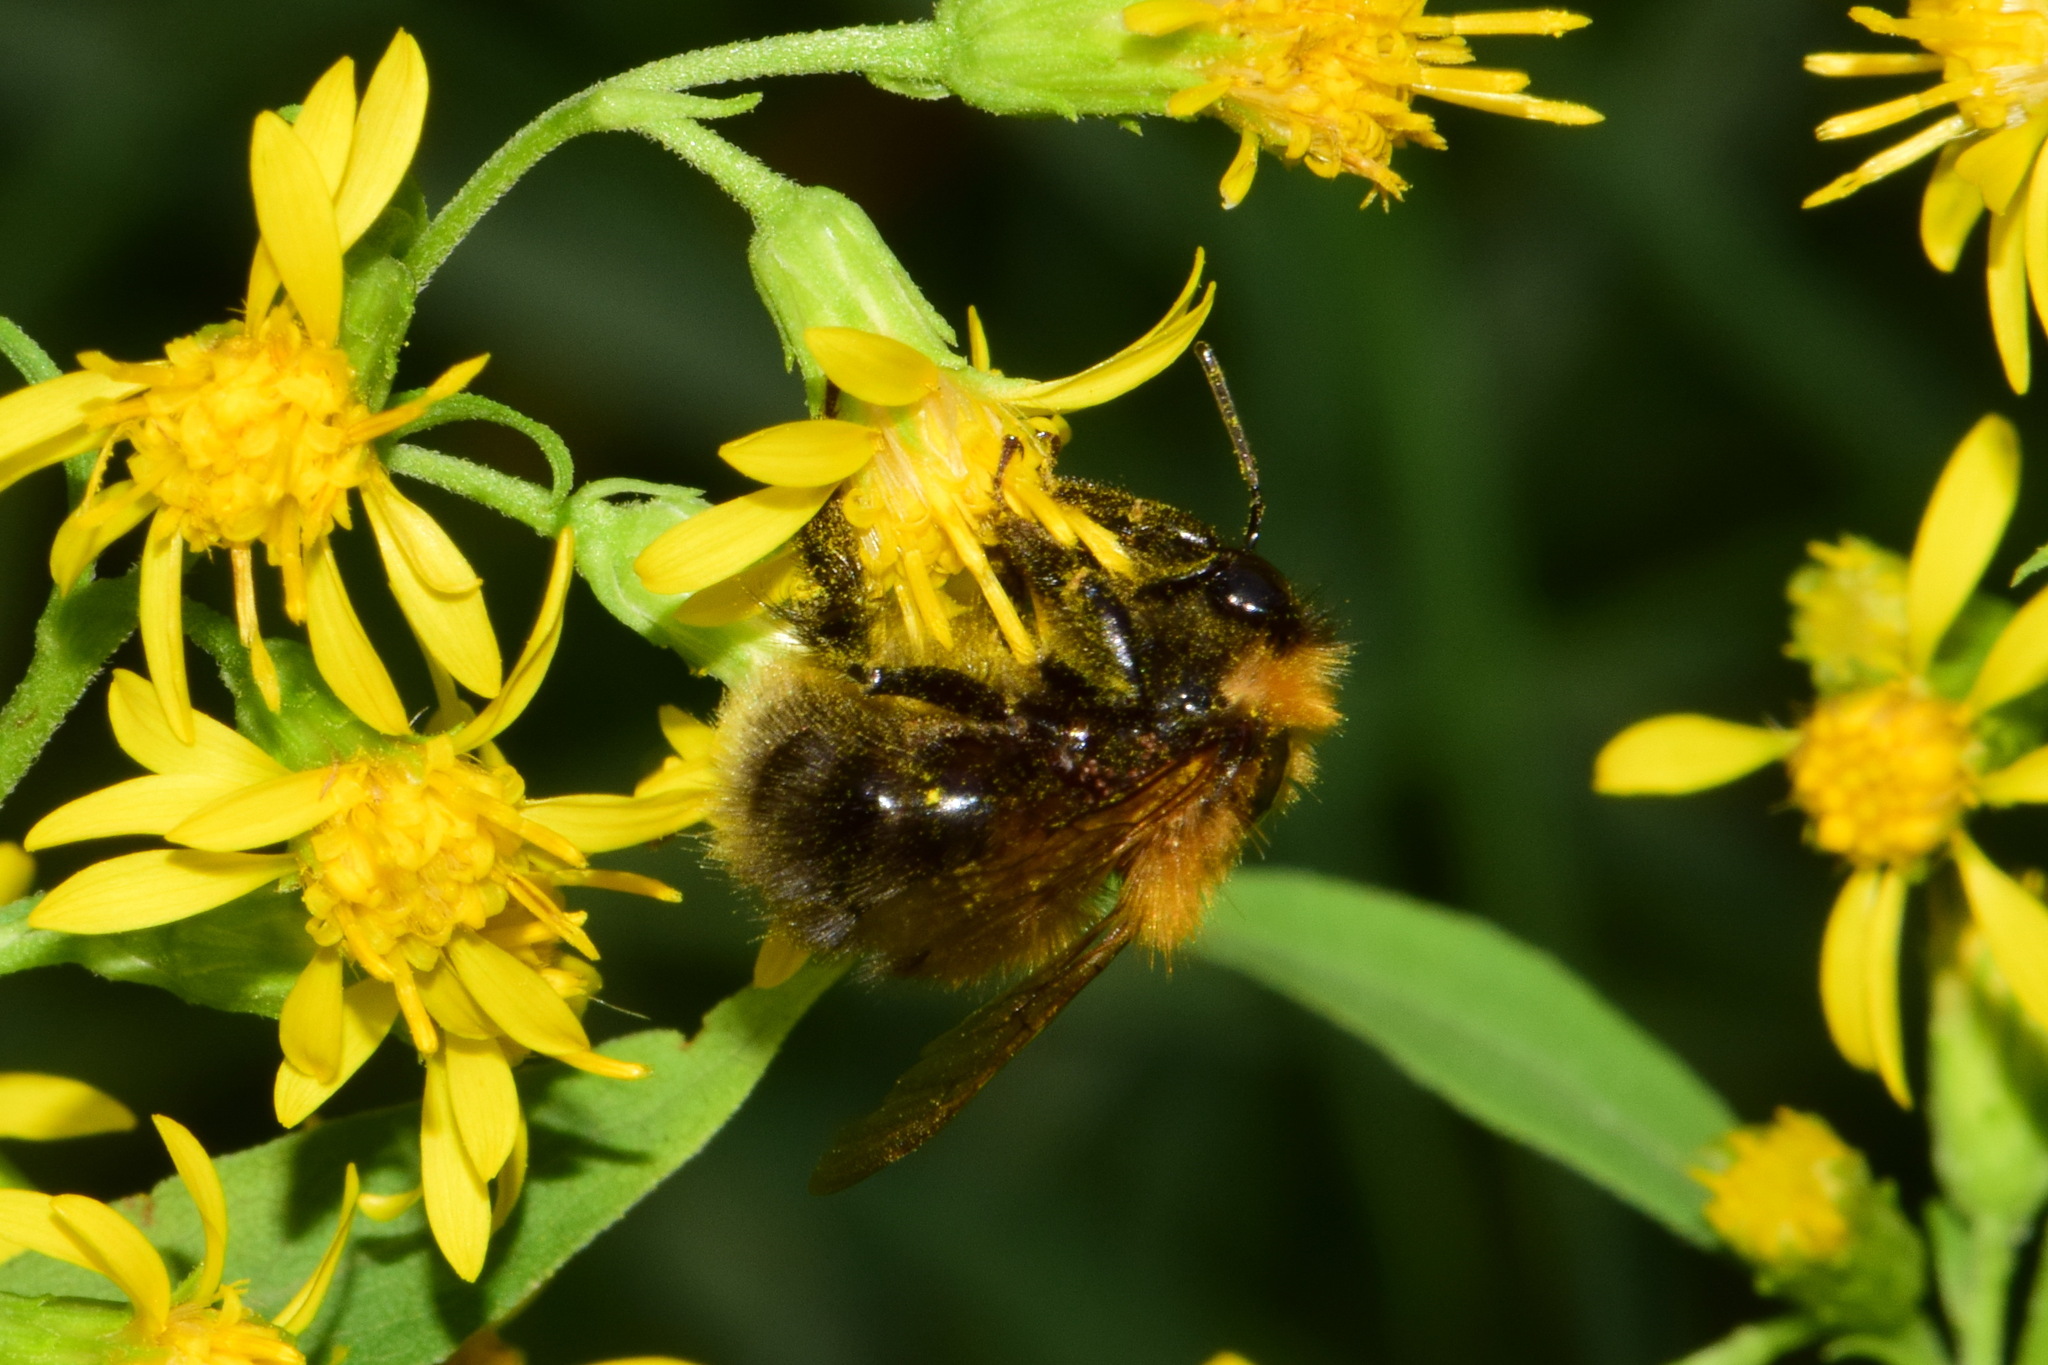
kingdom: Animalia
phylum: Arthropoda
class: Insecta
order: Hymenoptera
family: Apidae
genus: Bombus
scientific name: Bombus hypnorum
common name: New garden bumblebee
